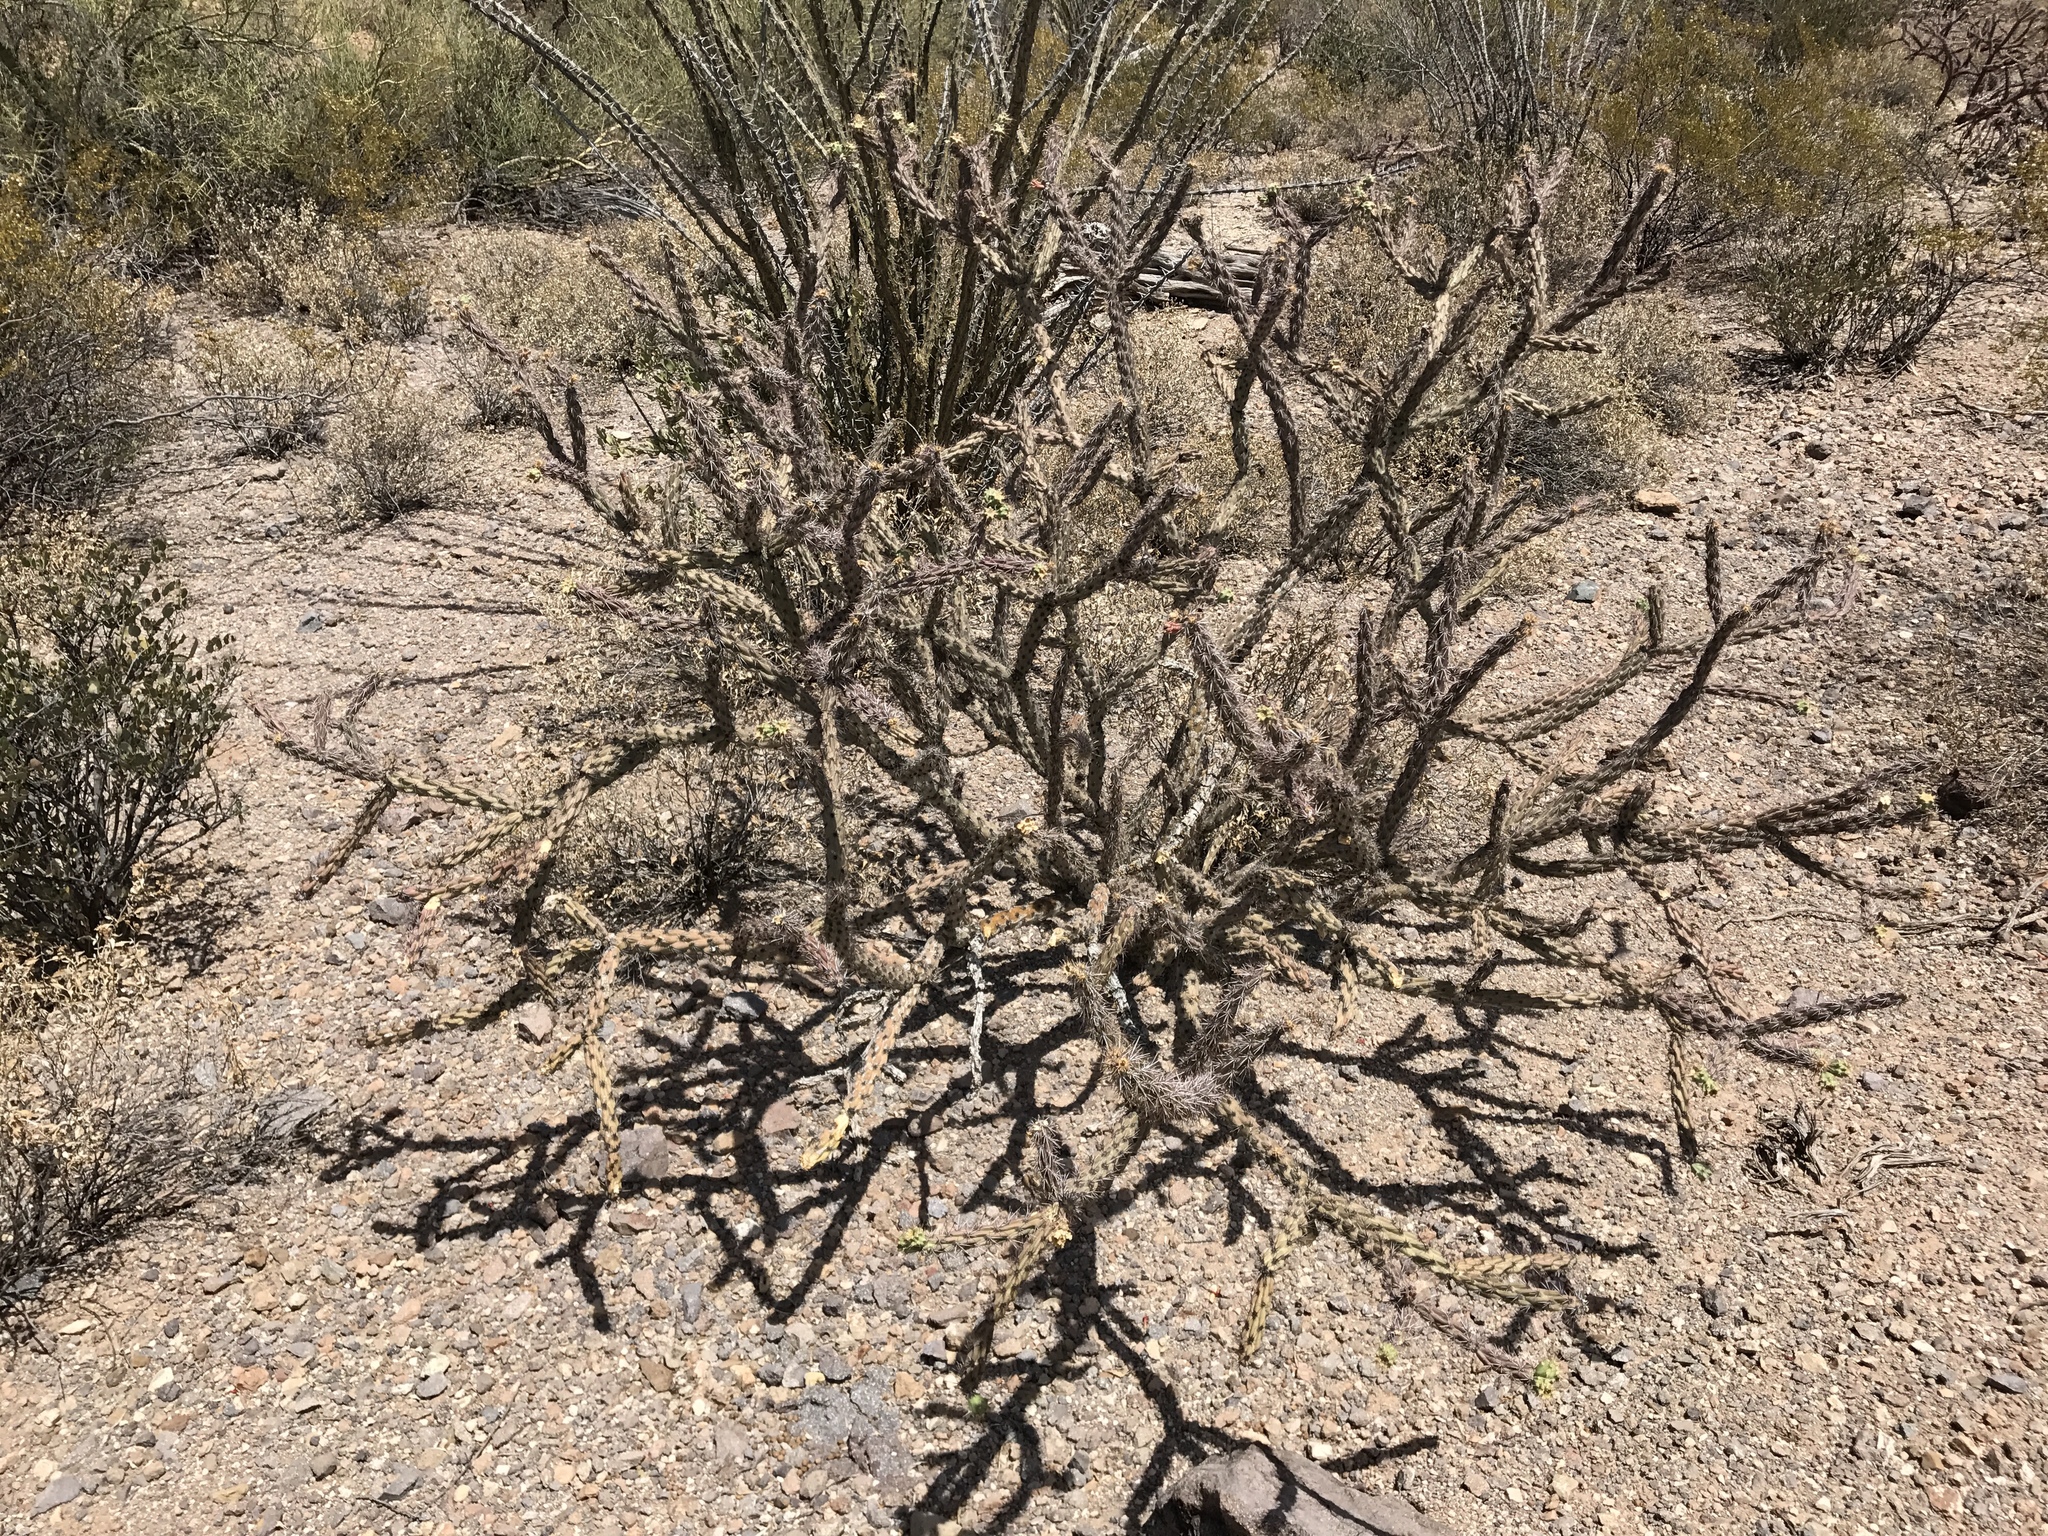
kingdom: Plantae
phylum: Tracheophyta
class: Magnoliopsida
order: Caryophyllales
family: Cactaceae
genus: Cylindropuntia
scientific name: Cylindropuntia acanthocarpa
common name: Buckhorn cholla
